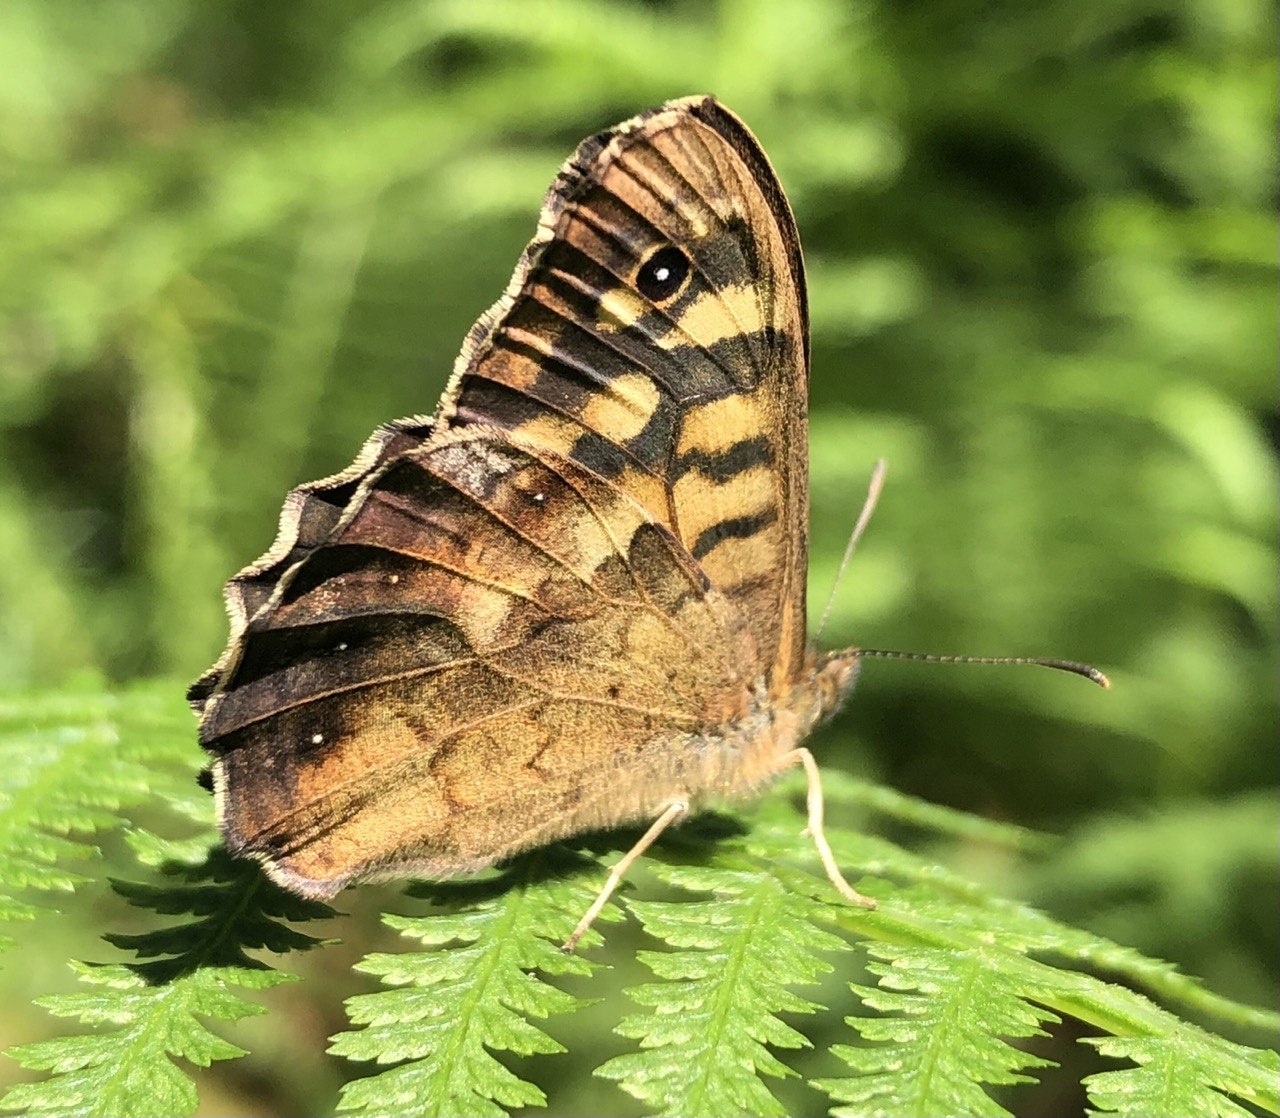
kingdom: Animalia
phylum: Arthropoda
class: Insecta
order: Lepidoptera
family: Nymphalidae
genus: Pararge
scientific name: Pararge aegeria
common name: Speckled wood
